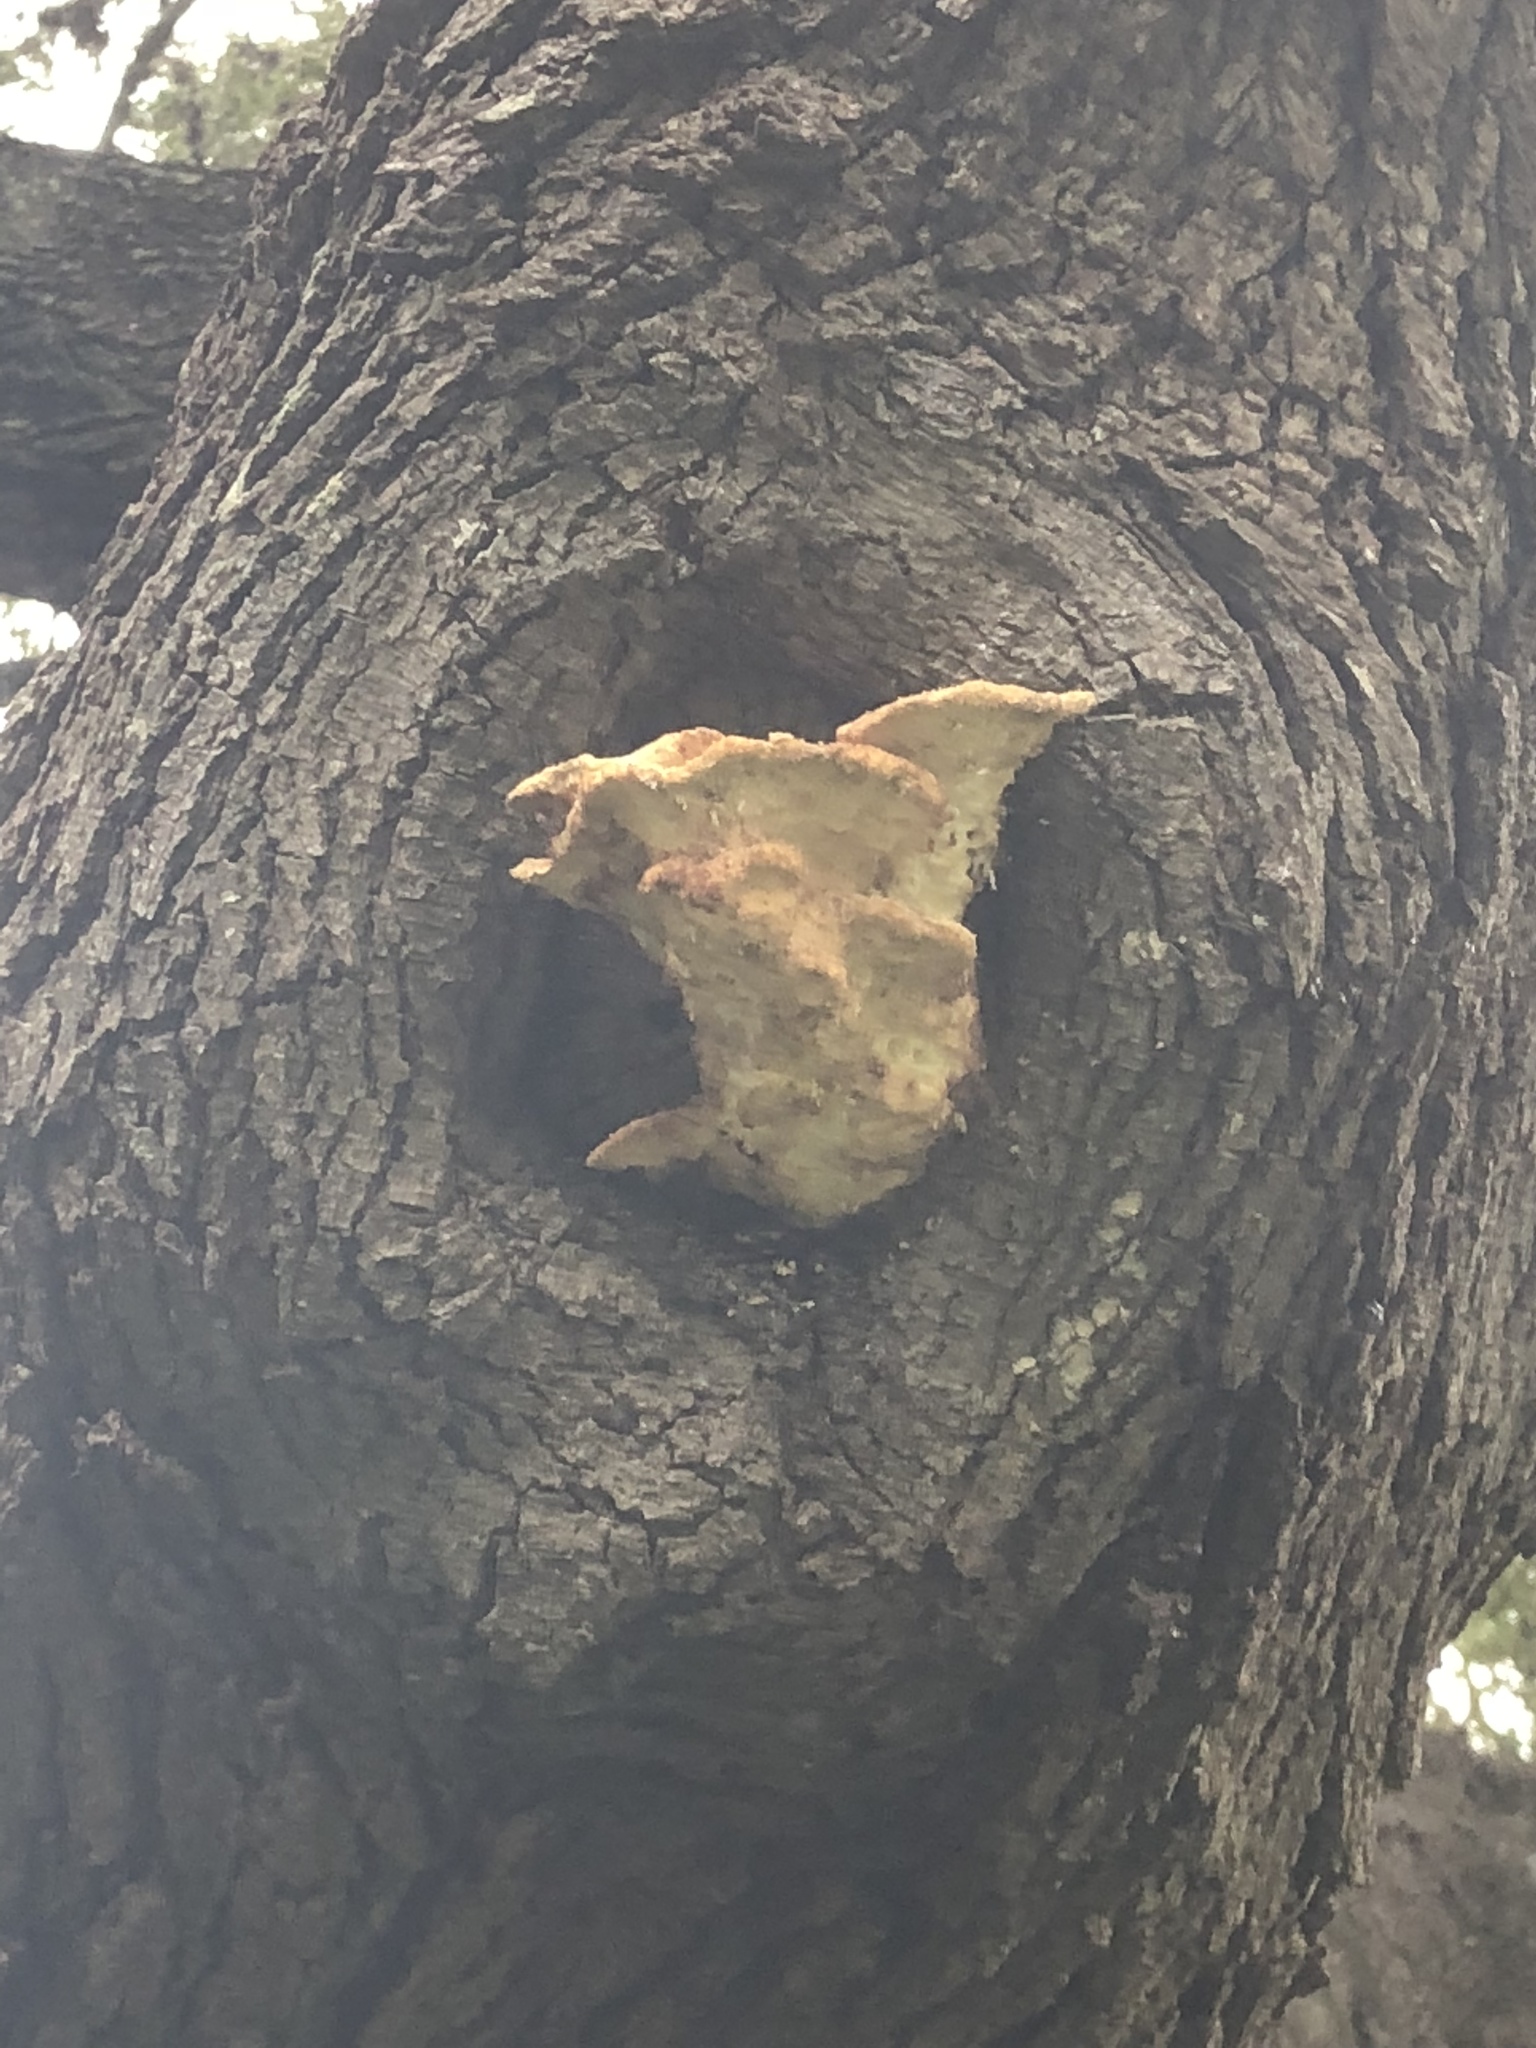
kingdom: Fungi
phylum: Basidiomycota
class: Agaricomycetes
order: Polyporales
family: Laetiporaceae
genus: Laetiporus
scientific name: Laetiporus gilbertsonii
